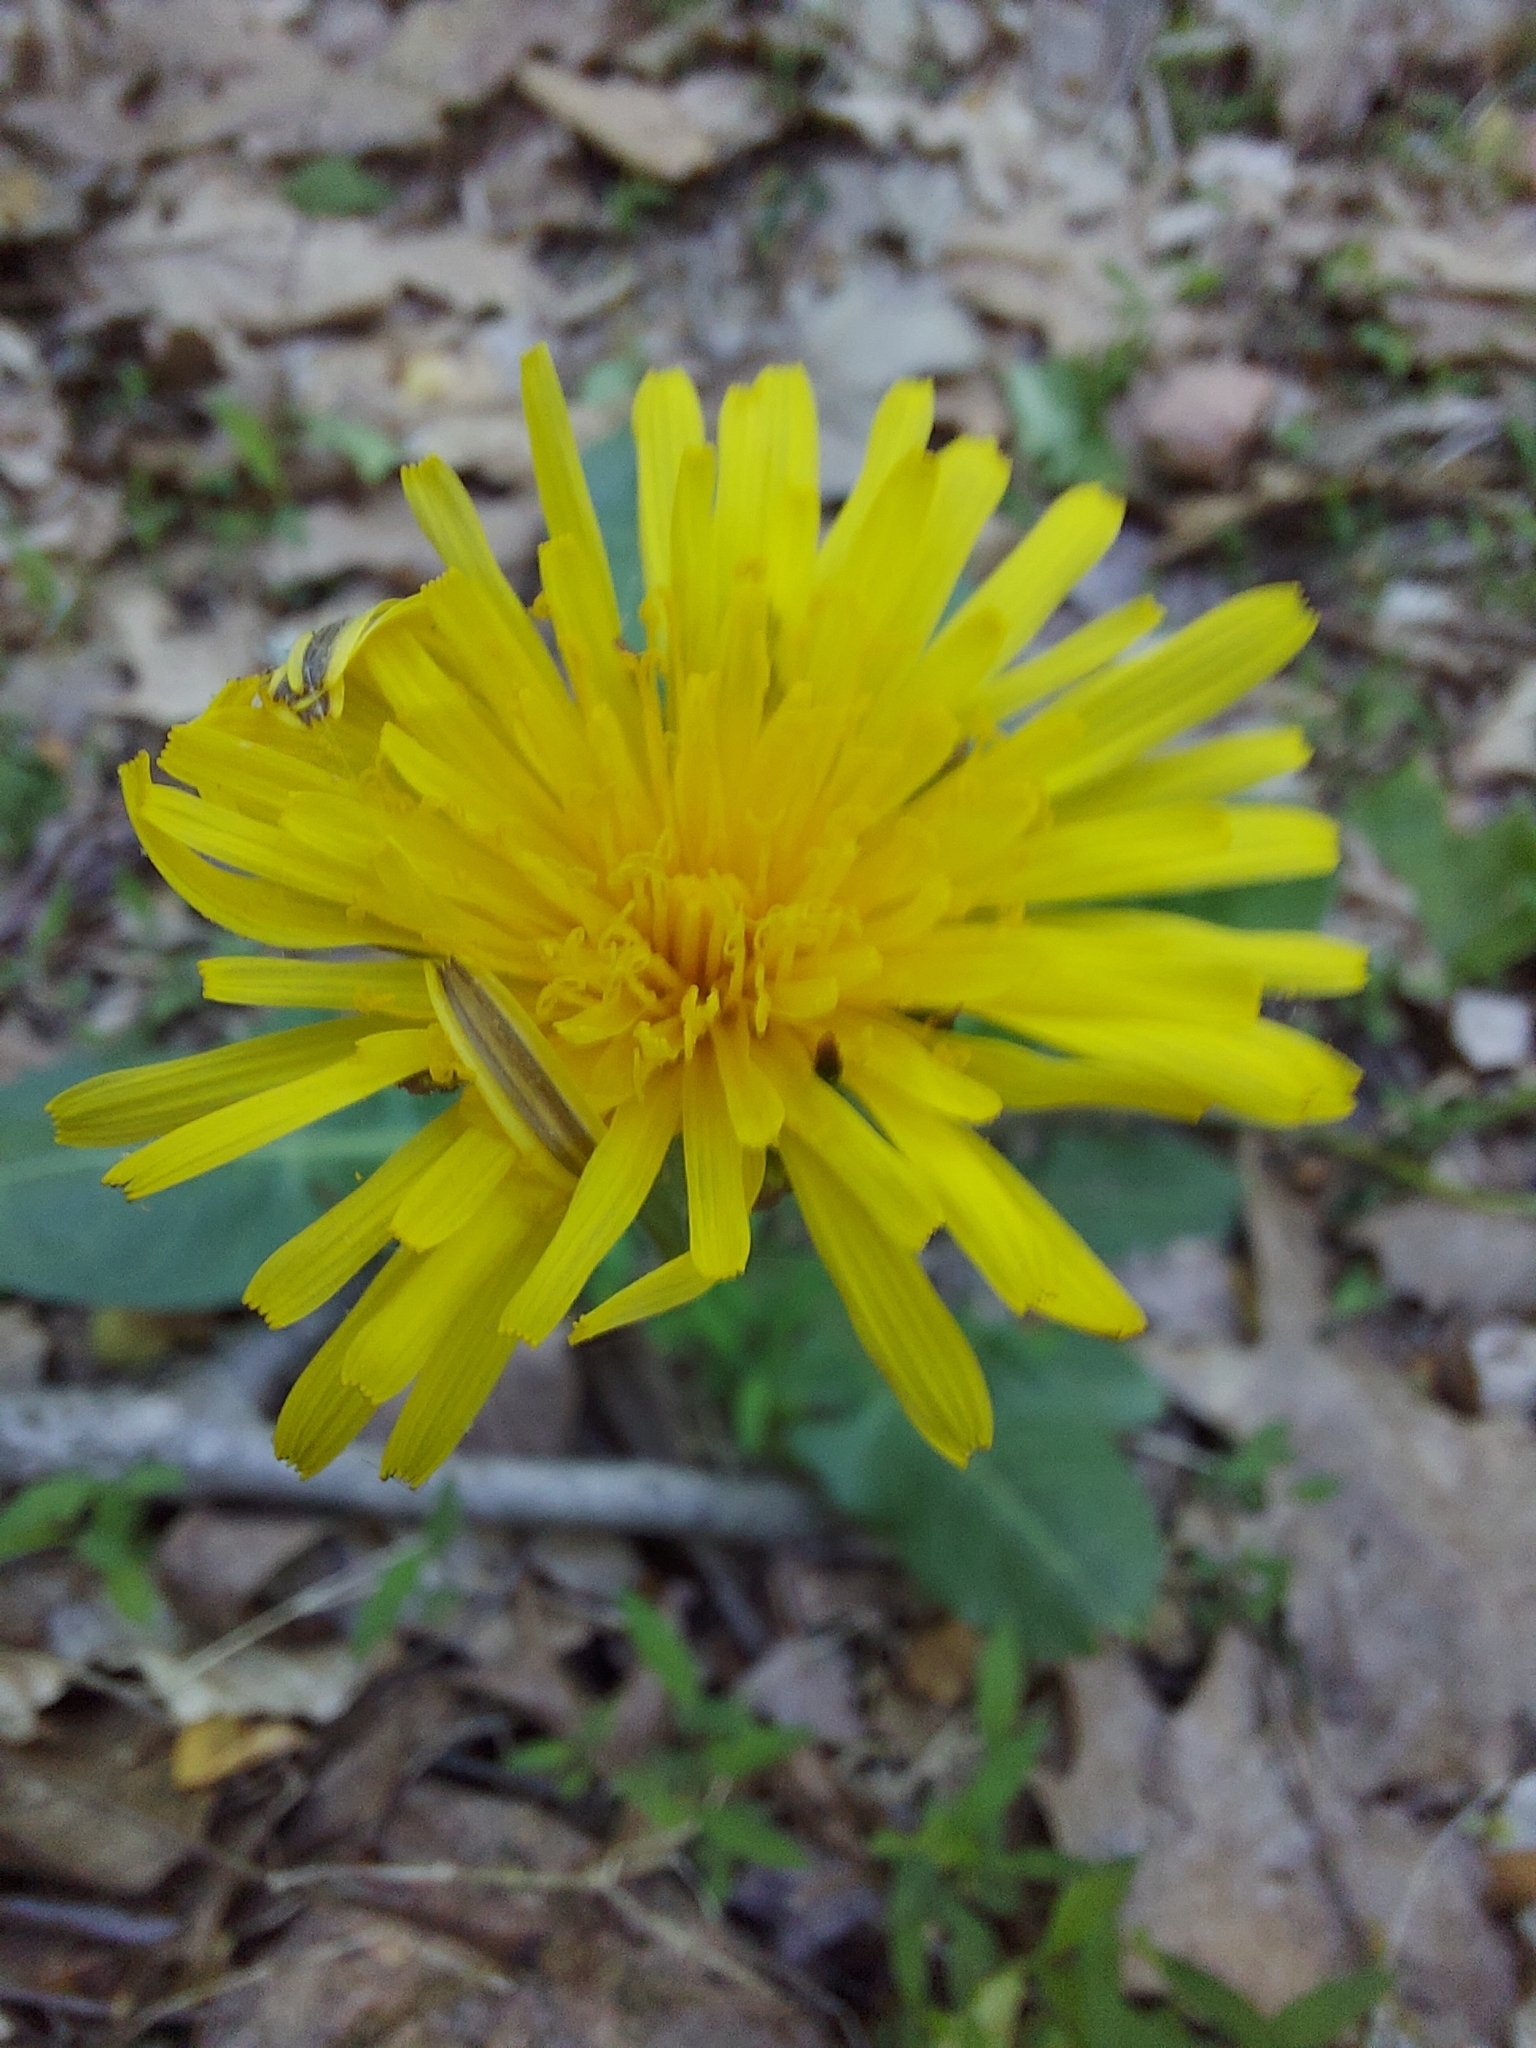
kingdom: Plantae
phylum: Tracheophyta
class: Magnoliopsida
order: Asterales
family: Asteraceae
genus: Taraxacum
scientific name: Taraxacum officinale
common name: Common dandelion
